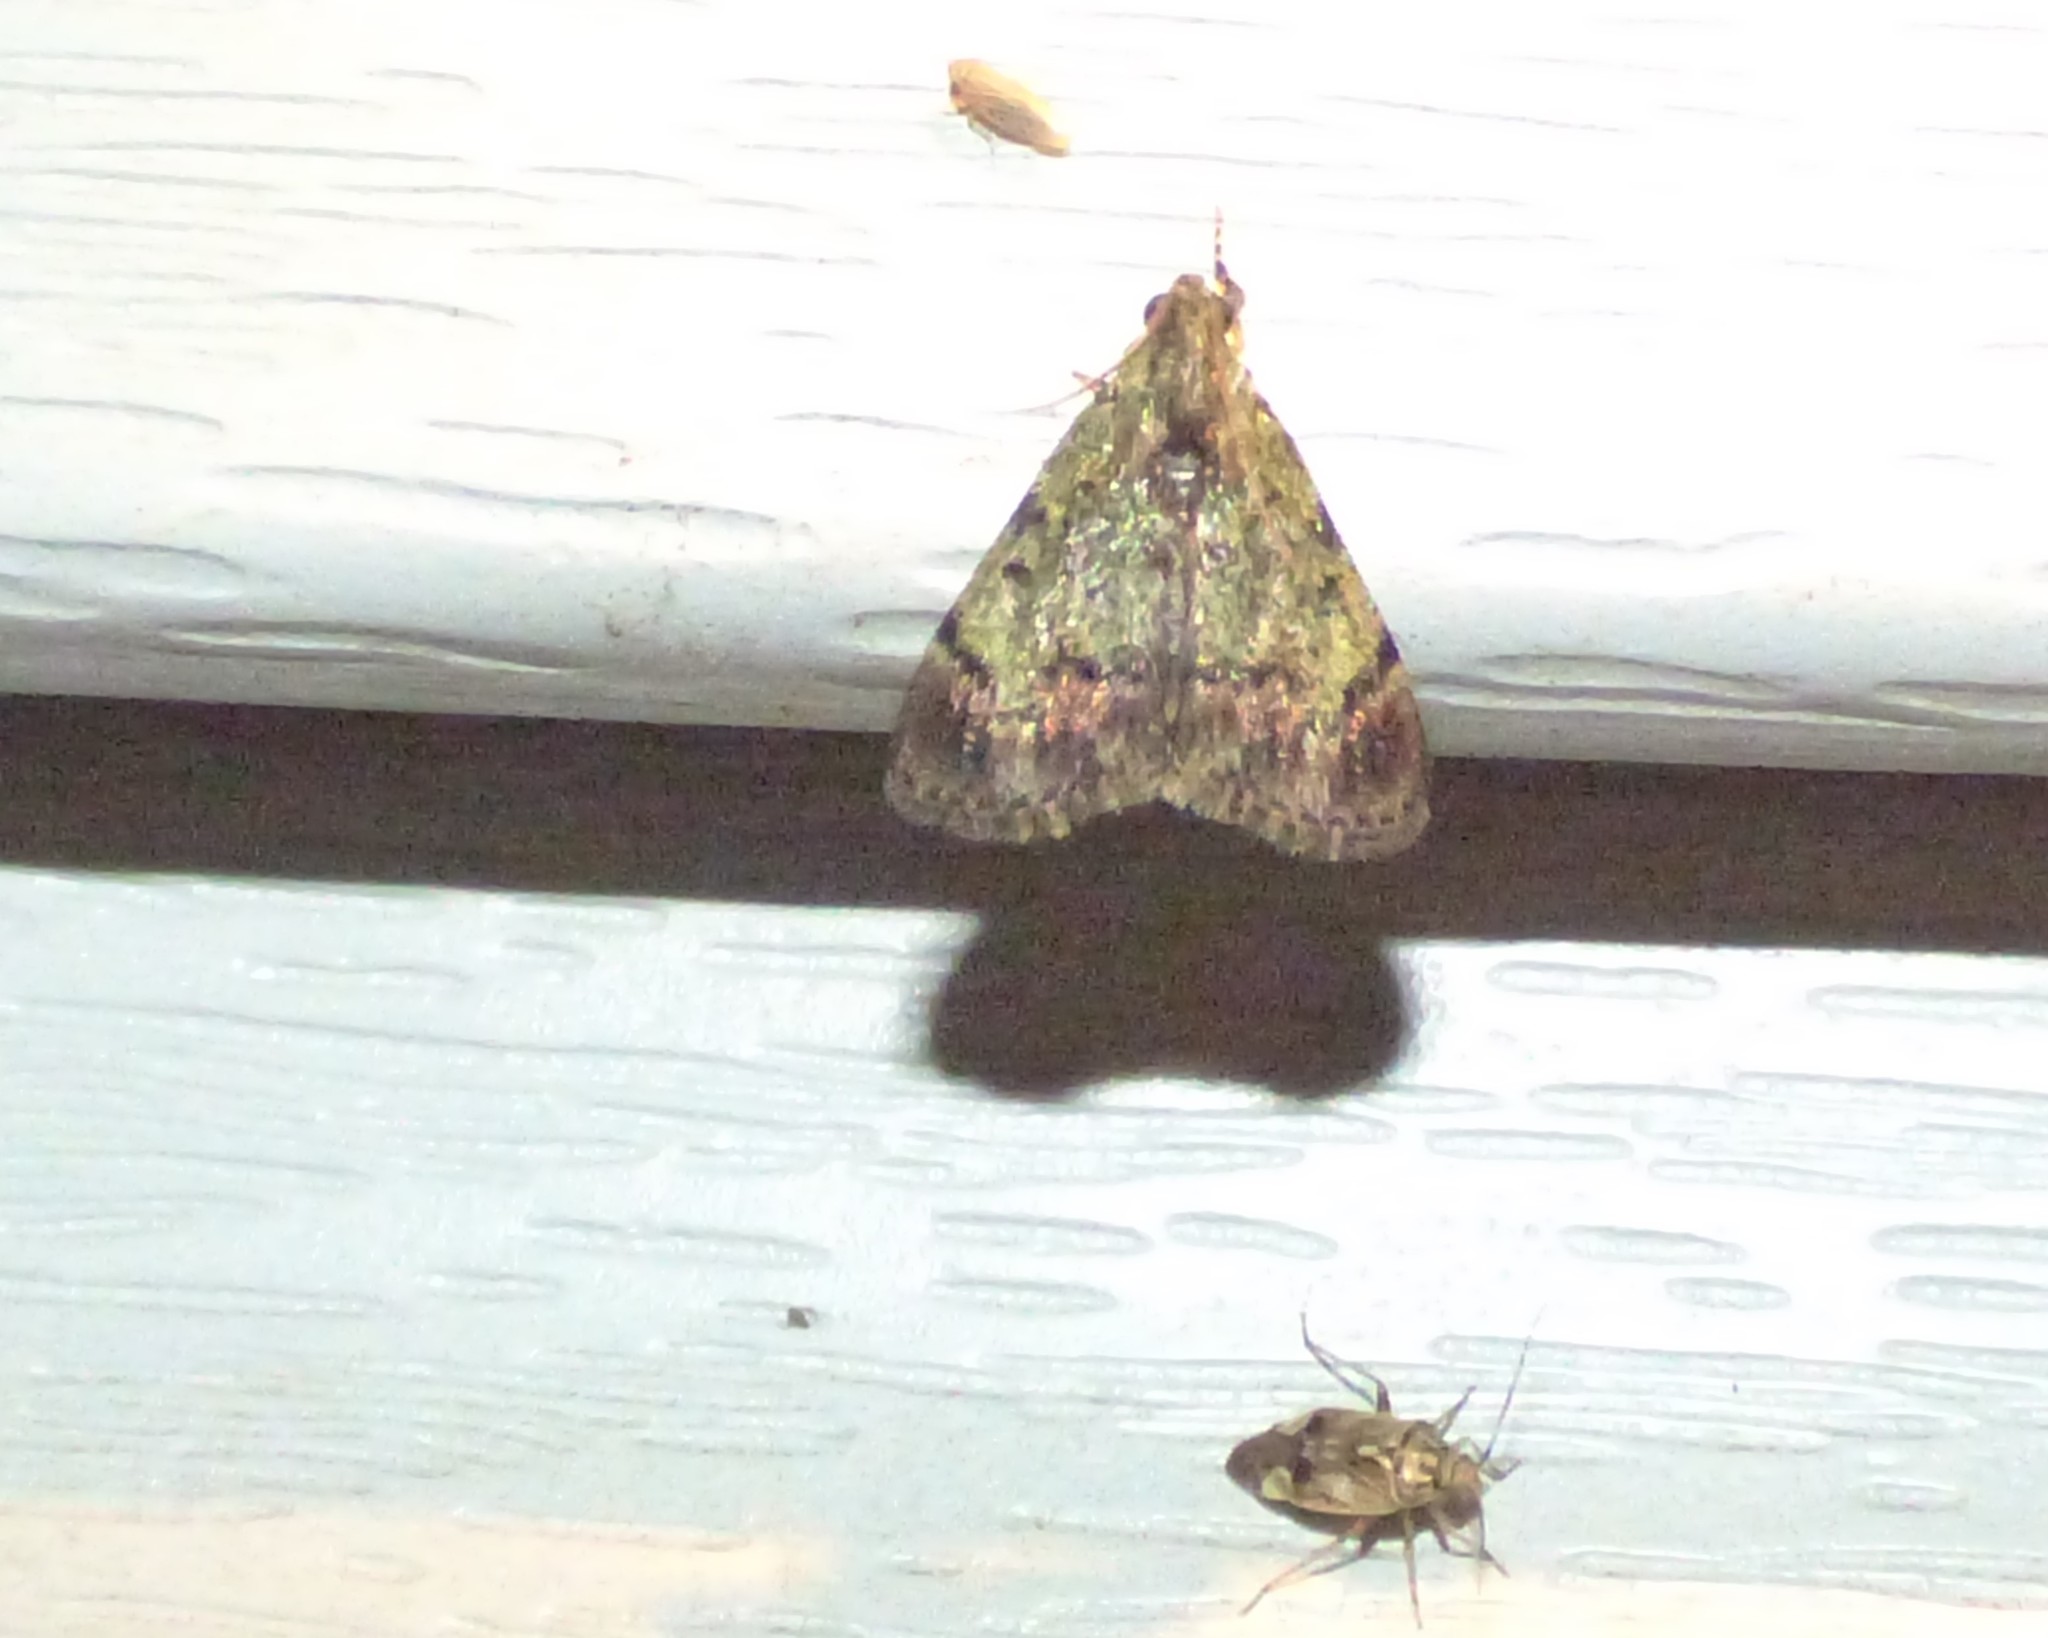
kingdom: Animalia
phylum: Arthropoda
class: Insecta
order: Lepidoptera
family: Pyralidae
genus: Epipaschia
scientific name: Epipaschia superatalis
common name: Dimorphic macalla moth
